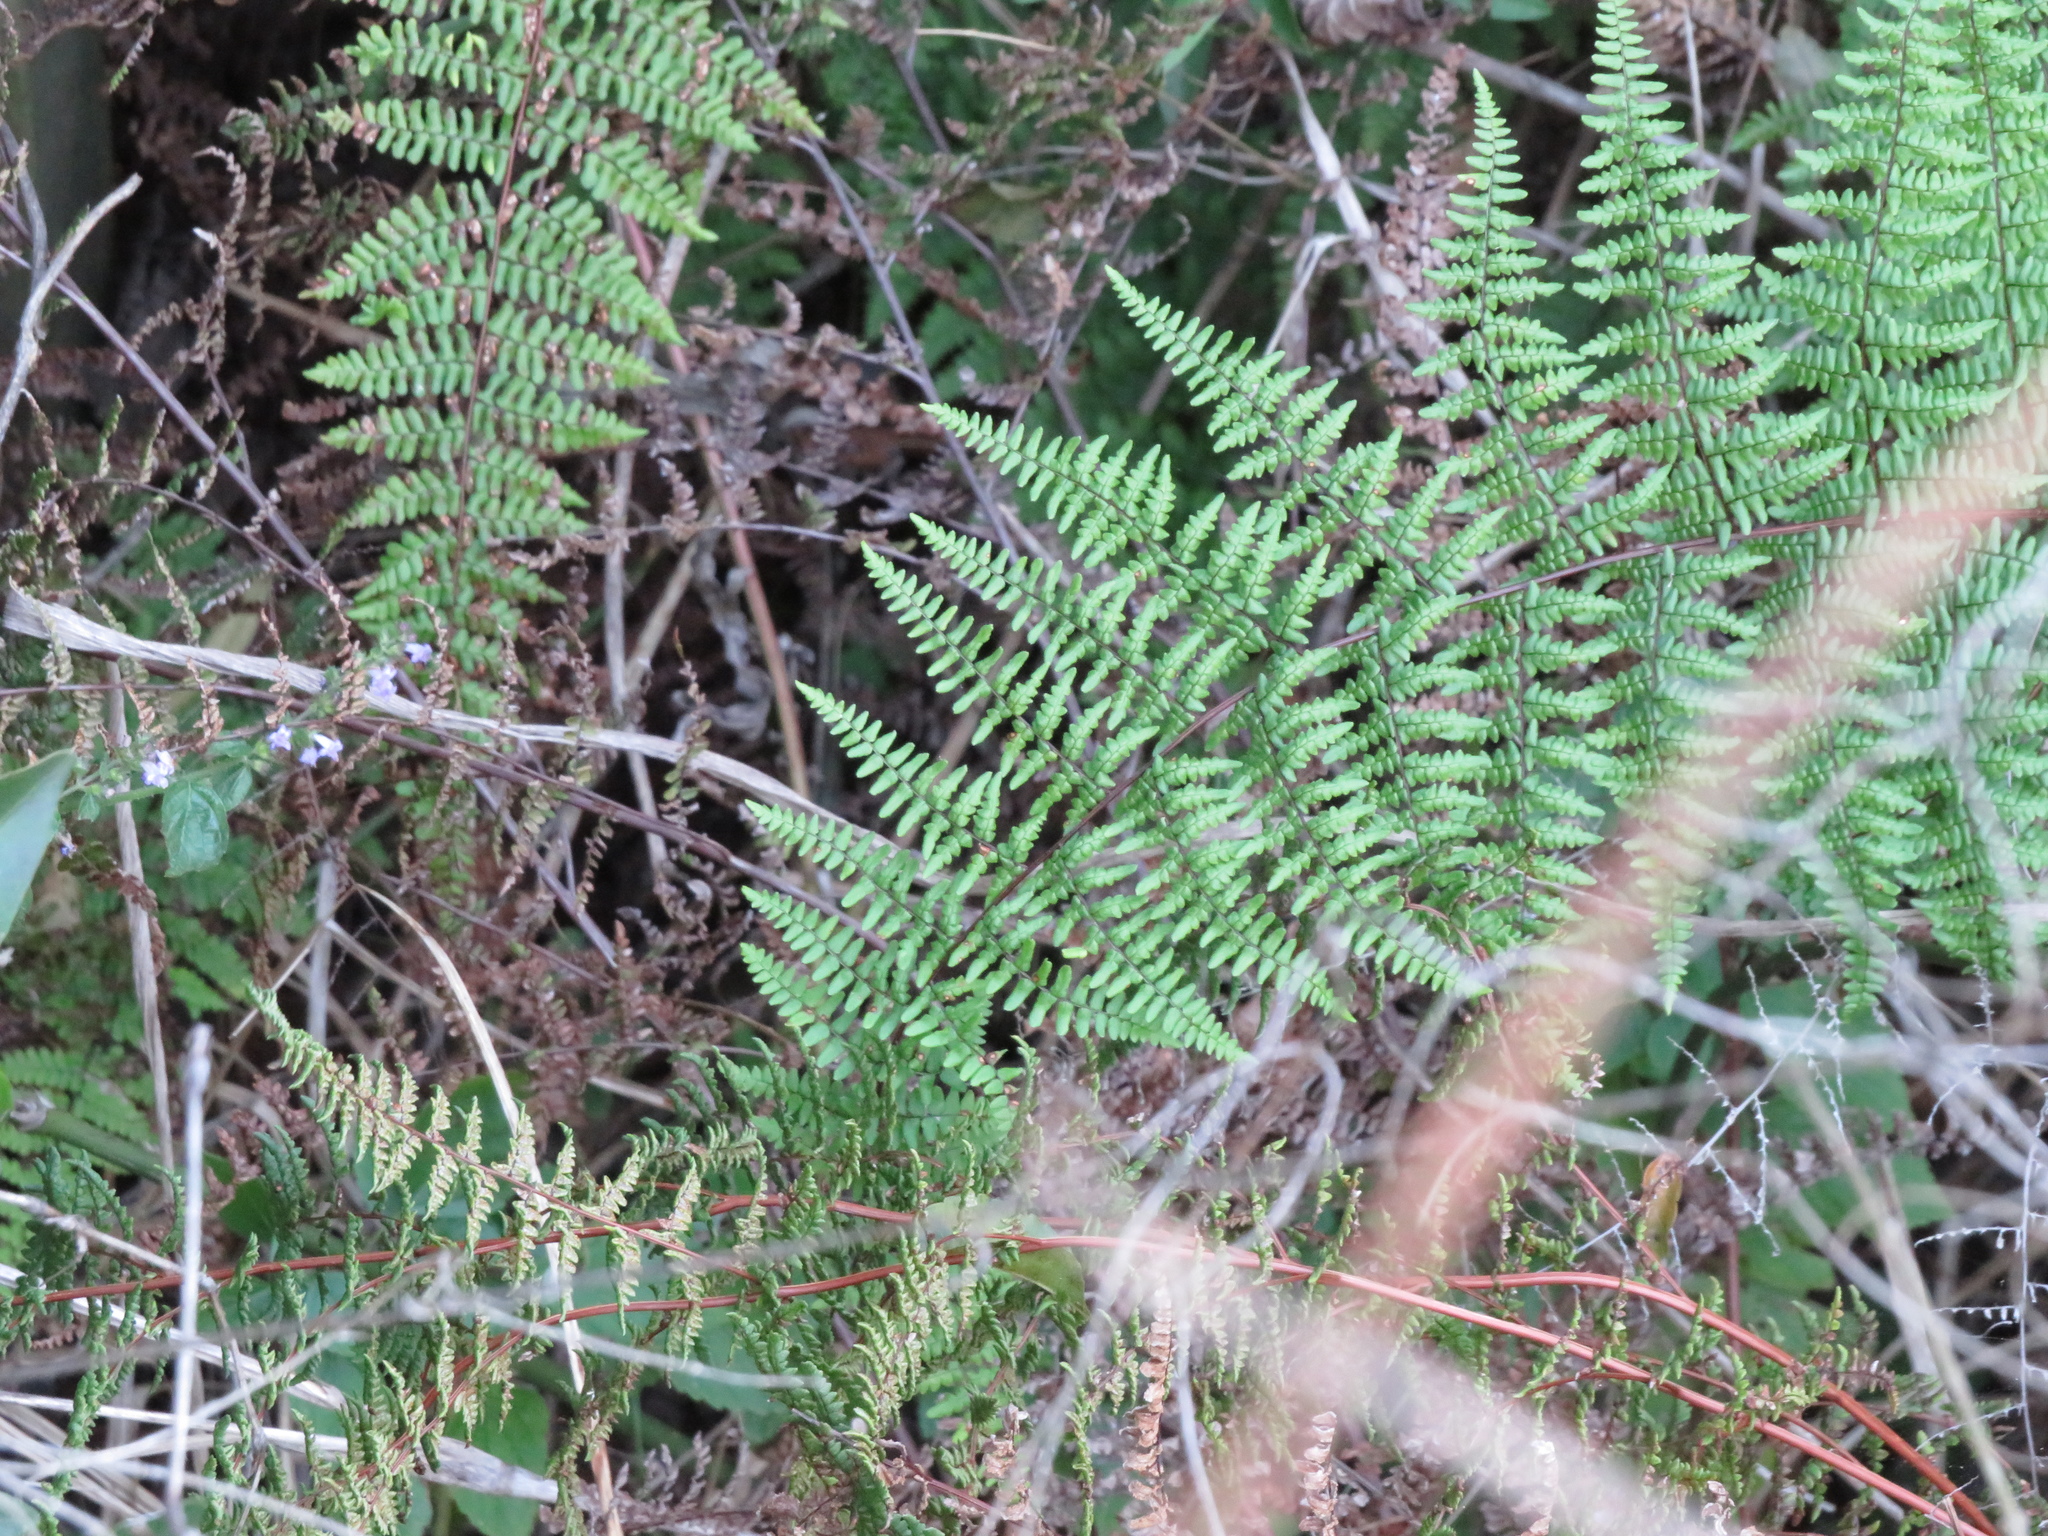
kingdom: Plantae
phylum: Tracheophyta
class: Polypodiopsida
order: Polypodiales
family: Pteridaceae
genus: Adiantopsis
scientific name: Adiantopsis chlorophylla
